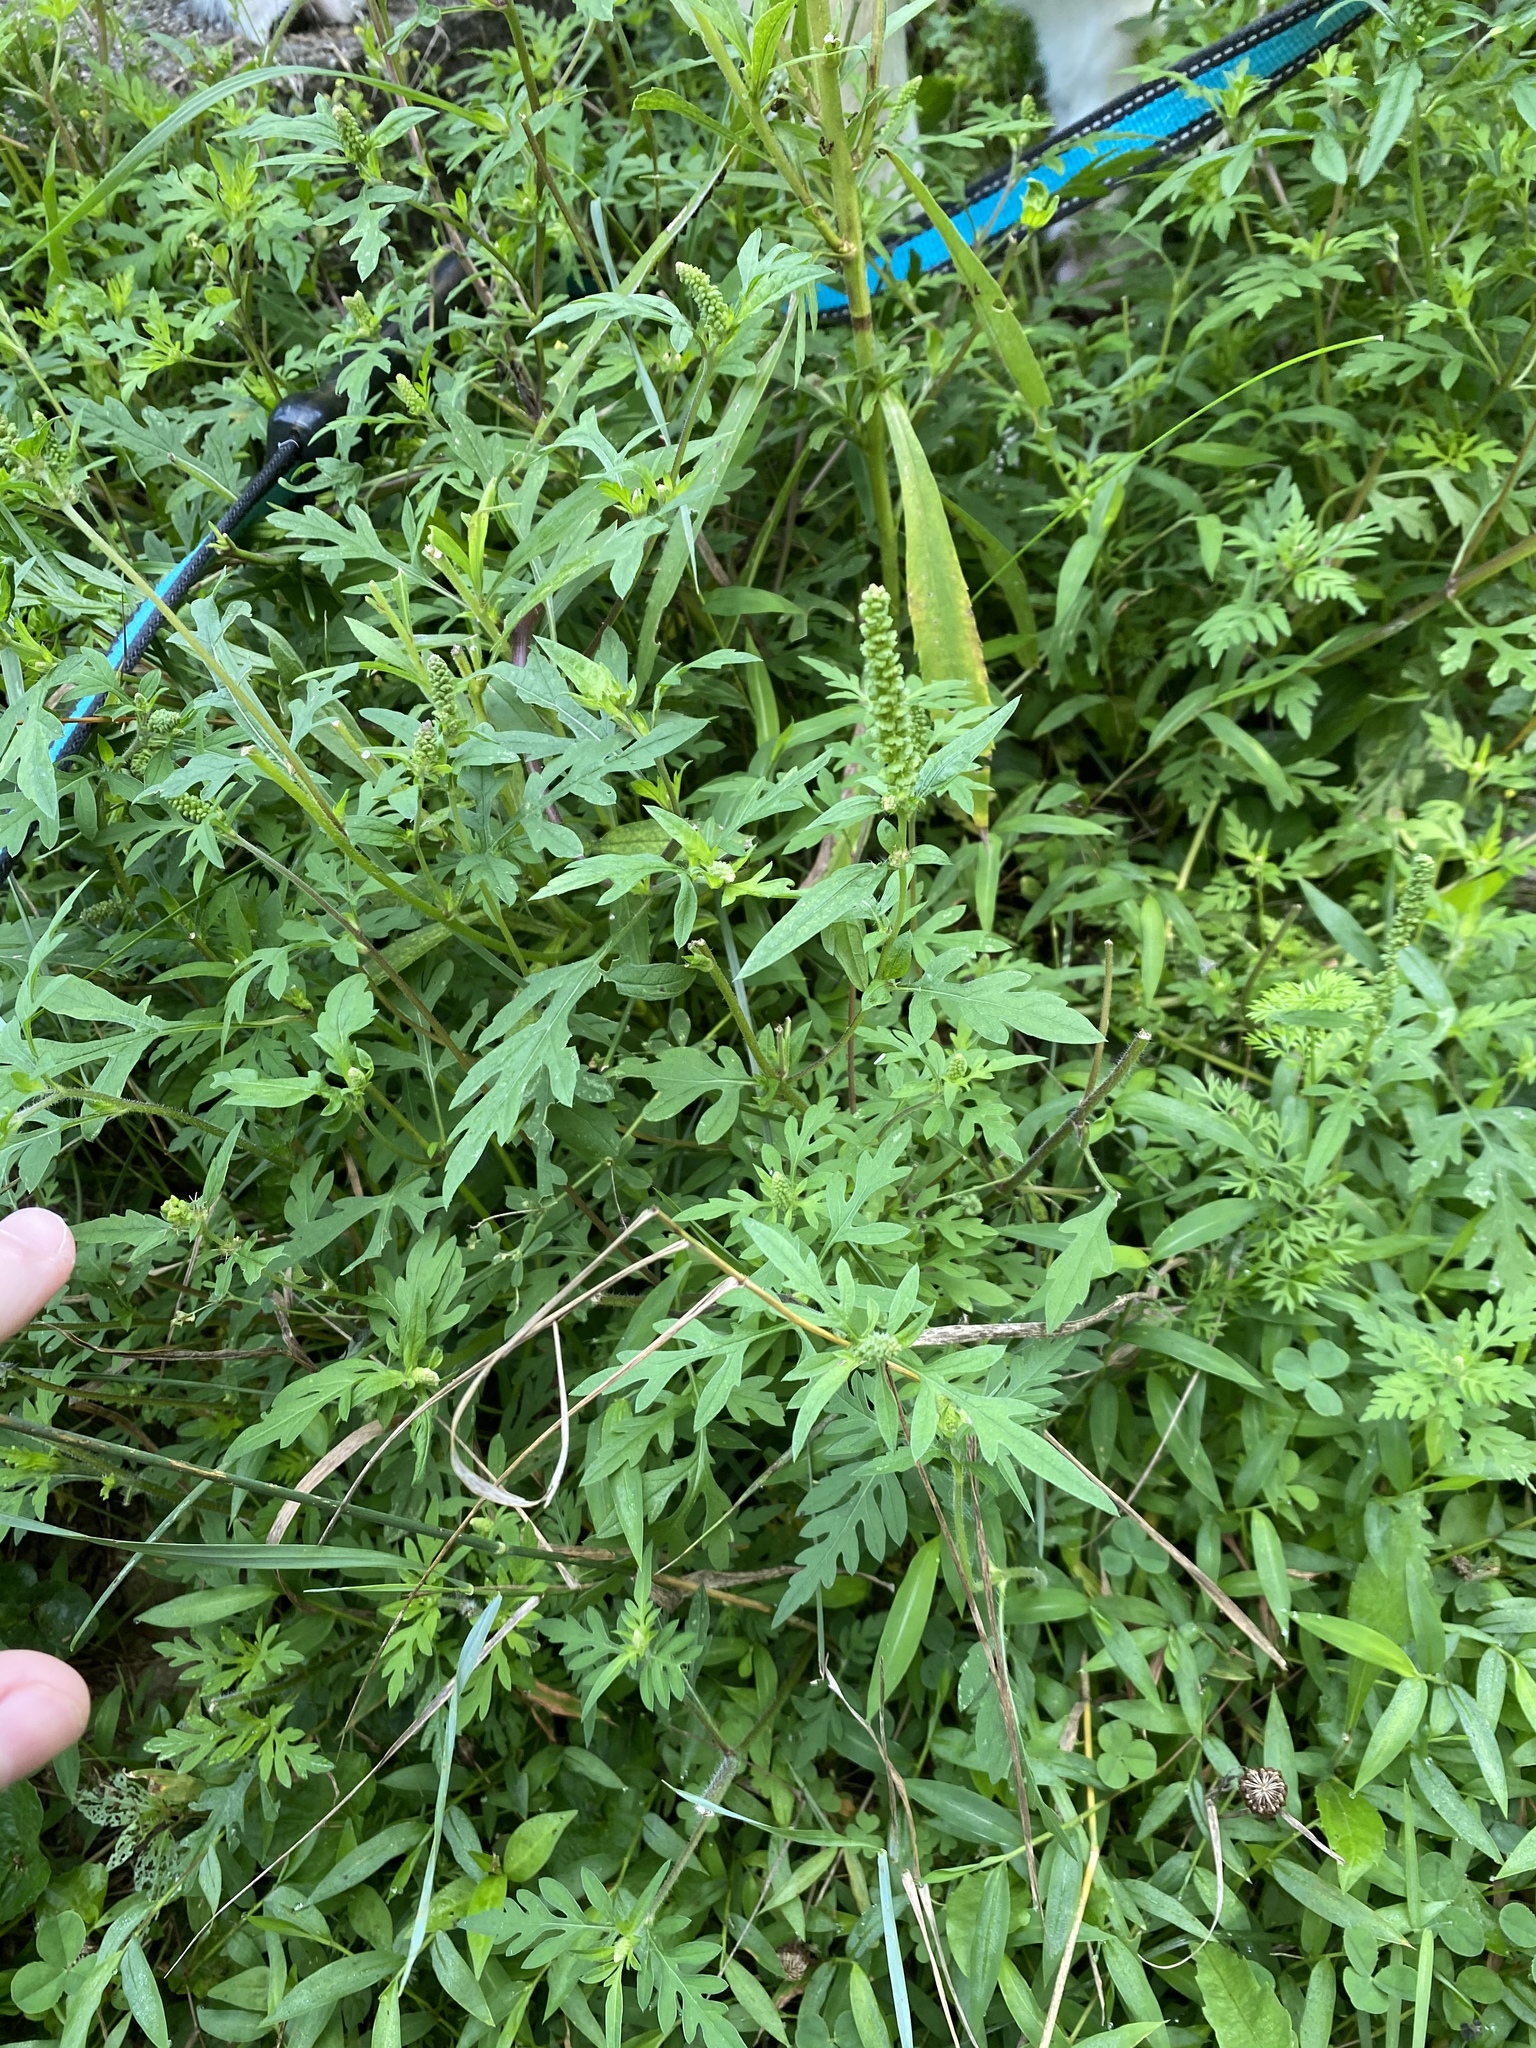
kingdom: Plantae
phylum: Tracheophyta
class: Magnoliopsida
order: Asterales
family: Asteraceae
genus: Ambrosia
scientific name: Ambrosia artemisiifolia
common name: Annual ragweed
